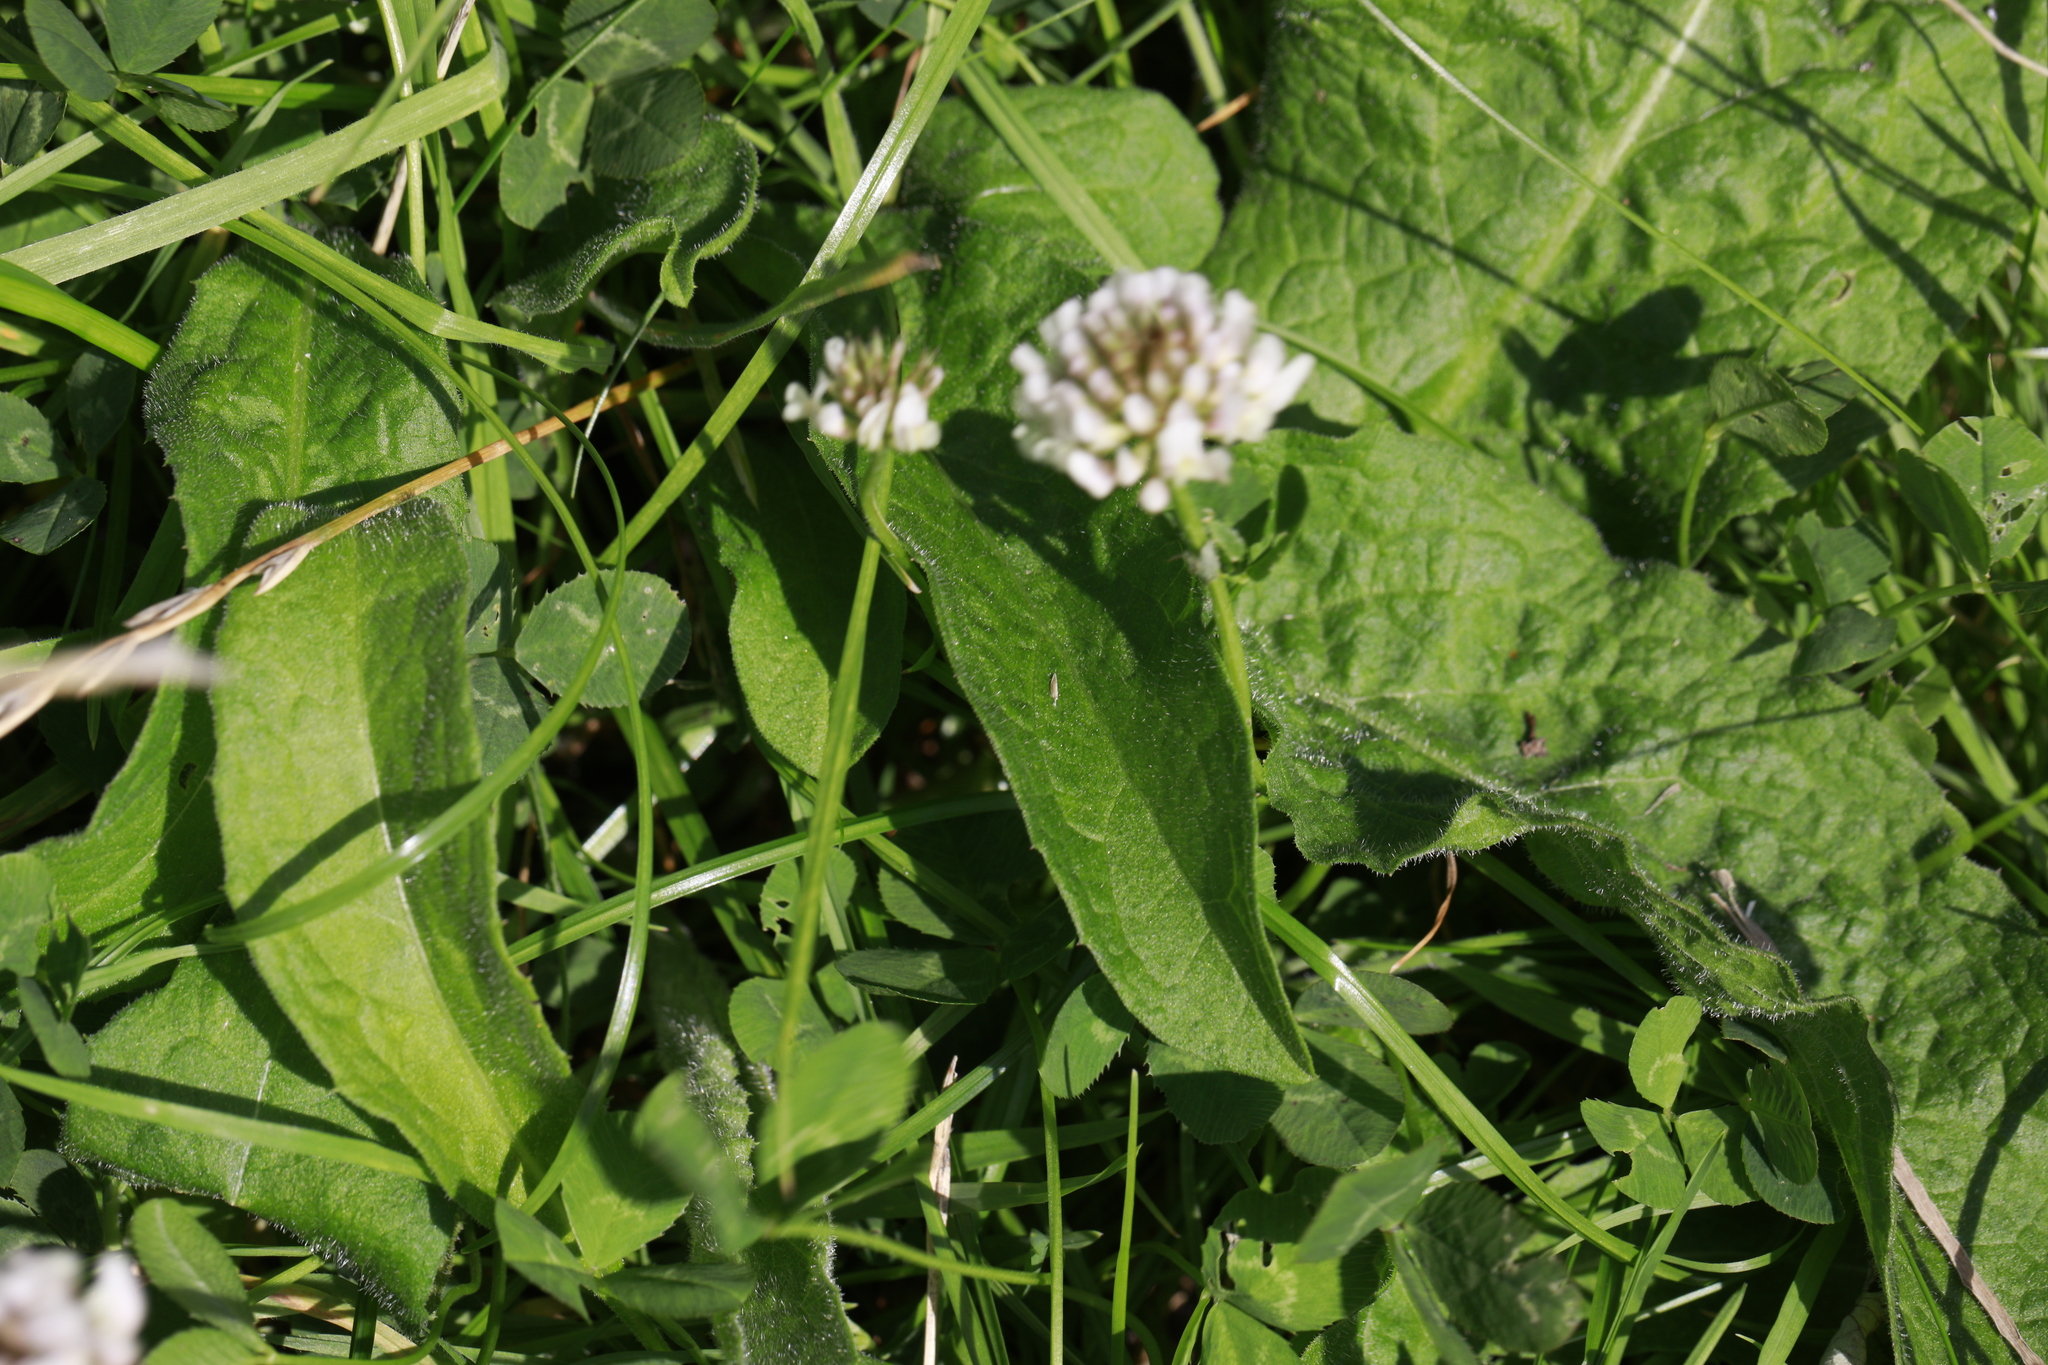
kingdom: Plantae
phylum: Tracheophyta
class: Magnoliopsida
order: Fabales
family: Fabaceae
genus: Trifolium
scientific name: Trifolium repens
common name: White clover
